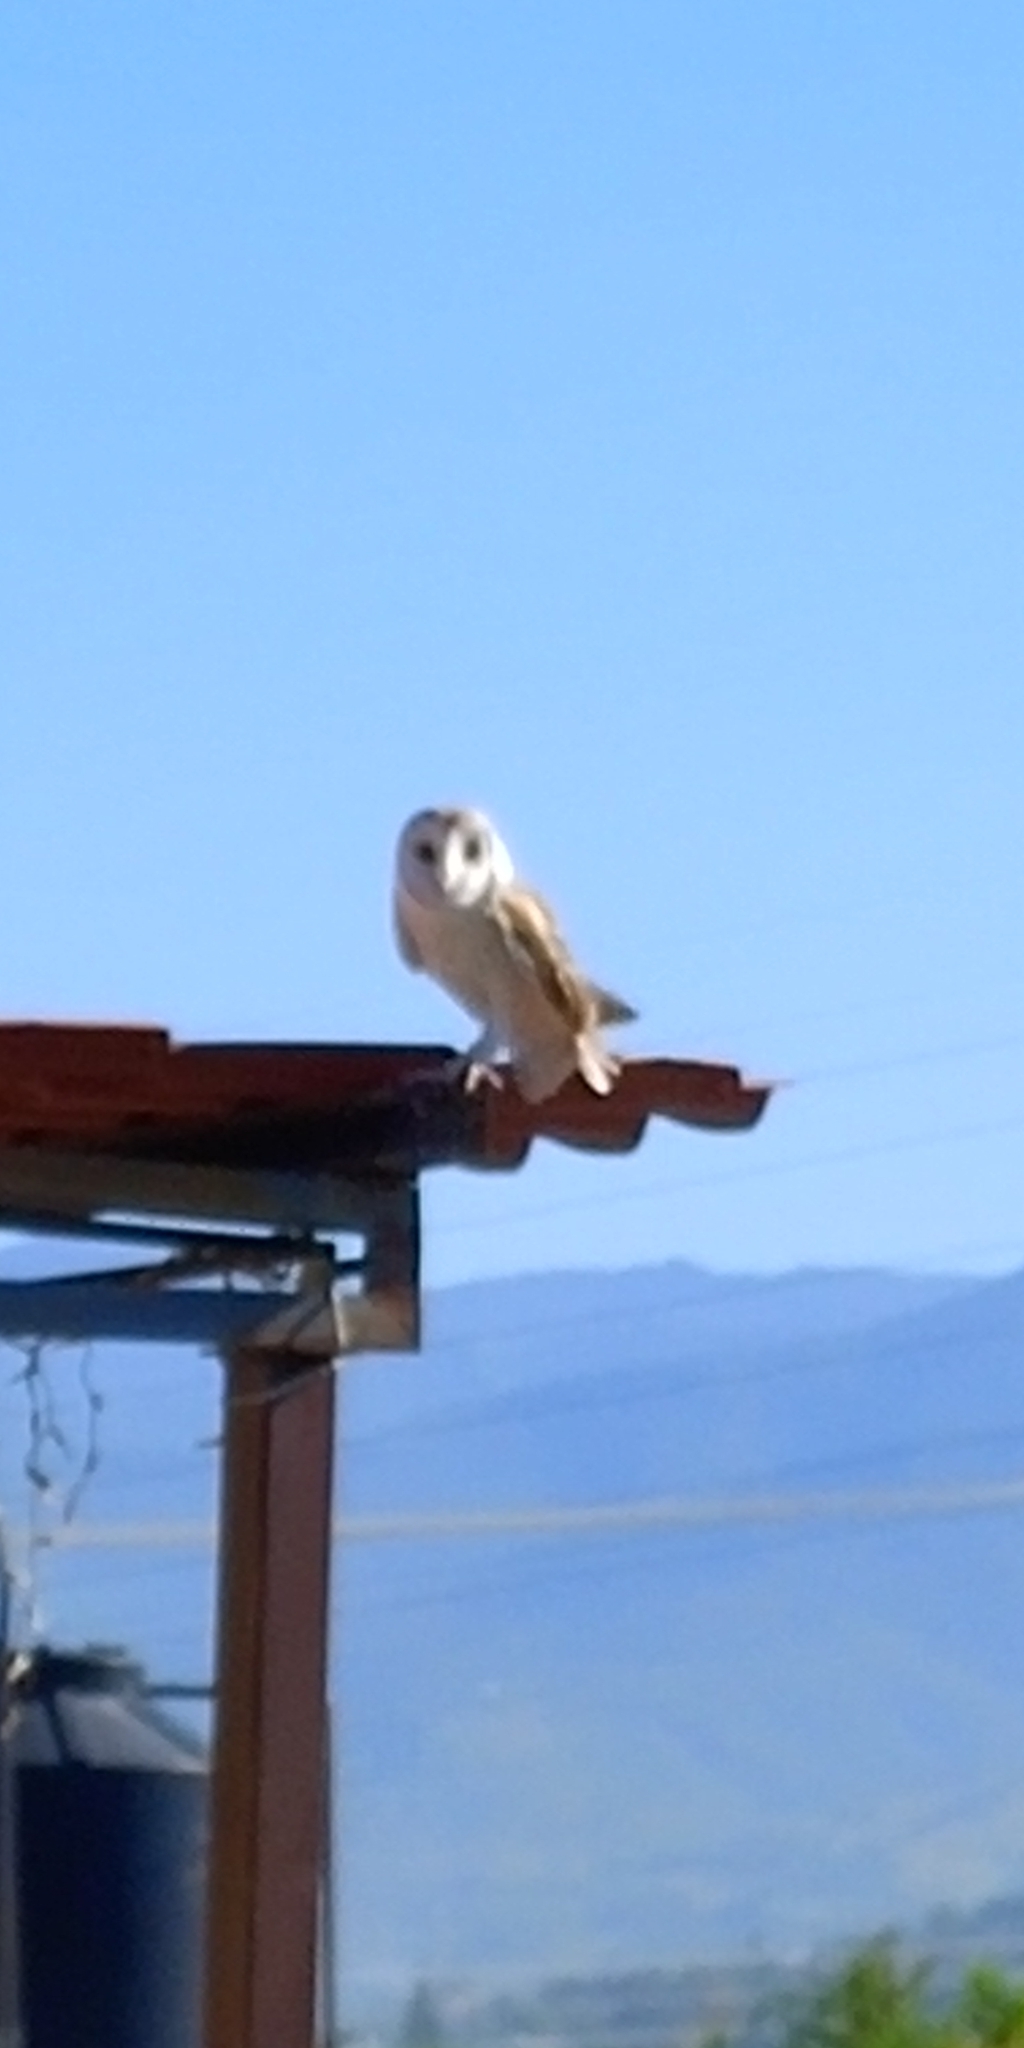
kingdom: Animalia
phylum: Chordata
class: Aves
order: Strigiformes
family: Tytonidae
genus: Tyto
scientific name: Tyto alba
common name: Barn owl
